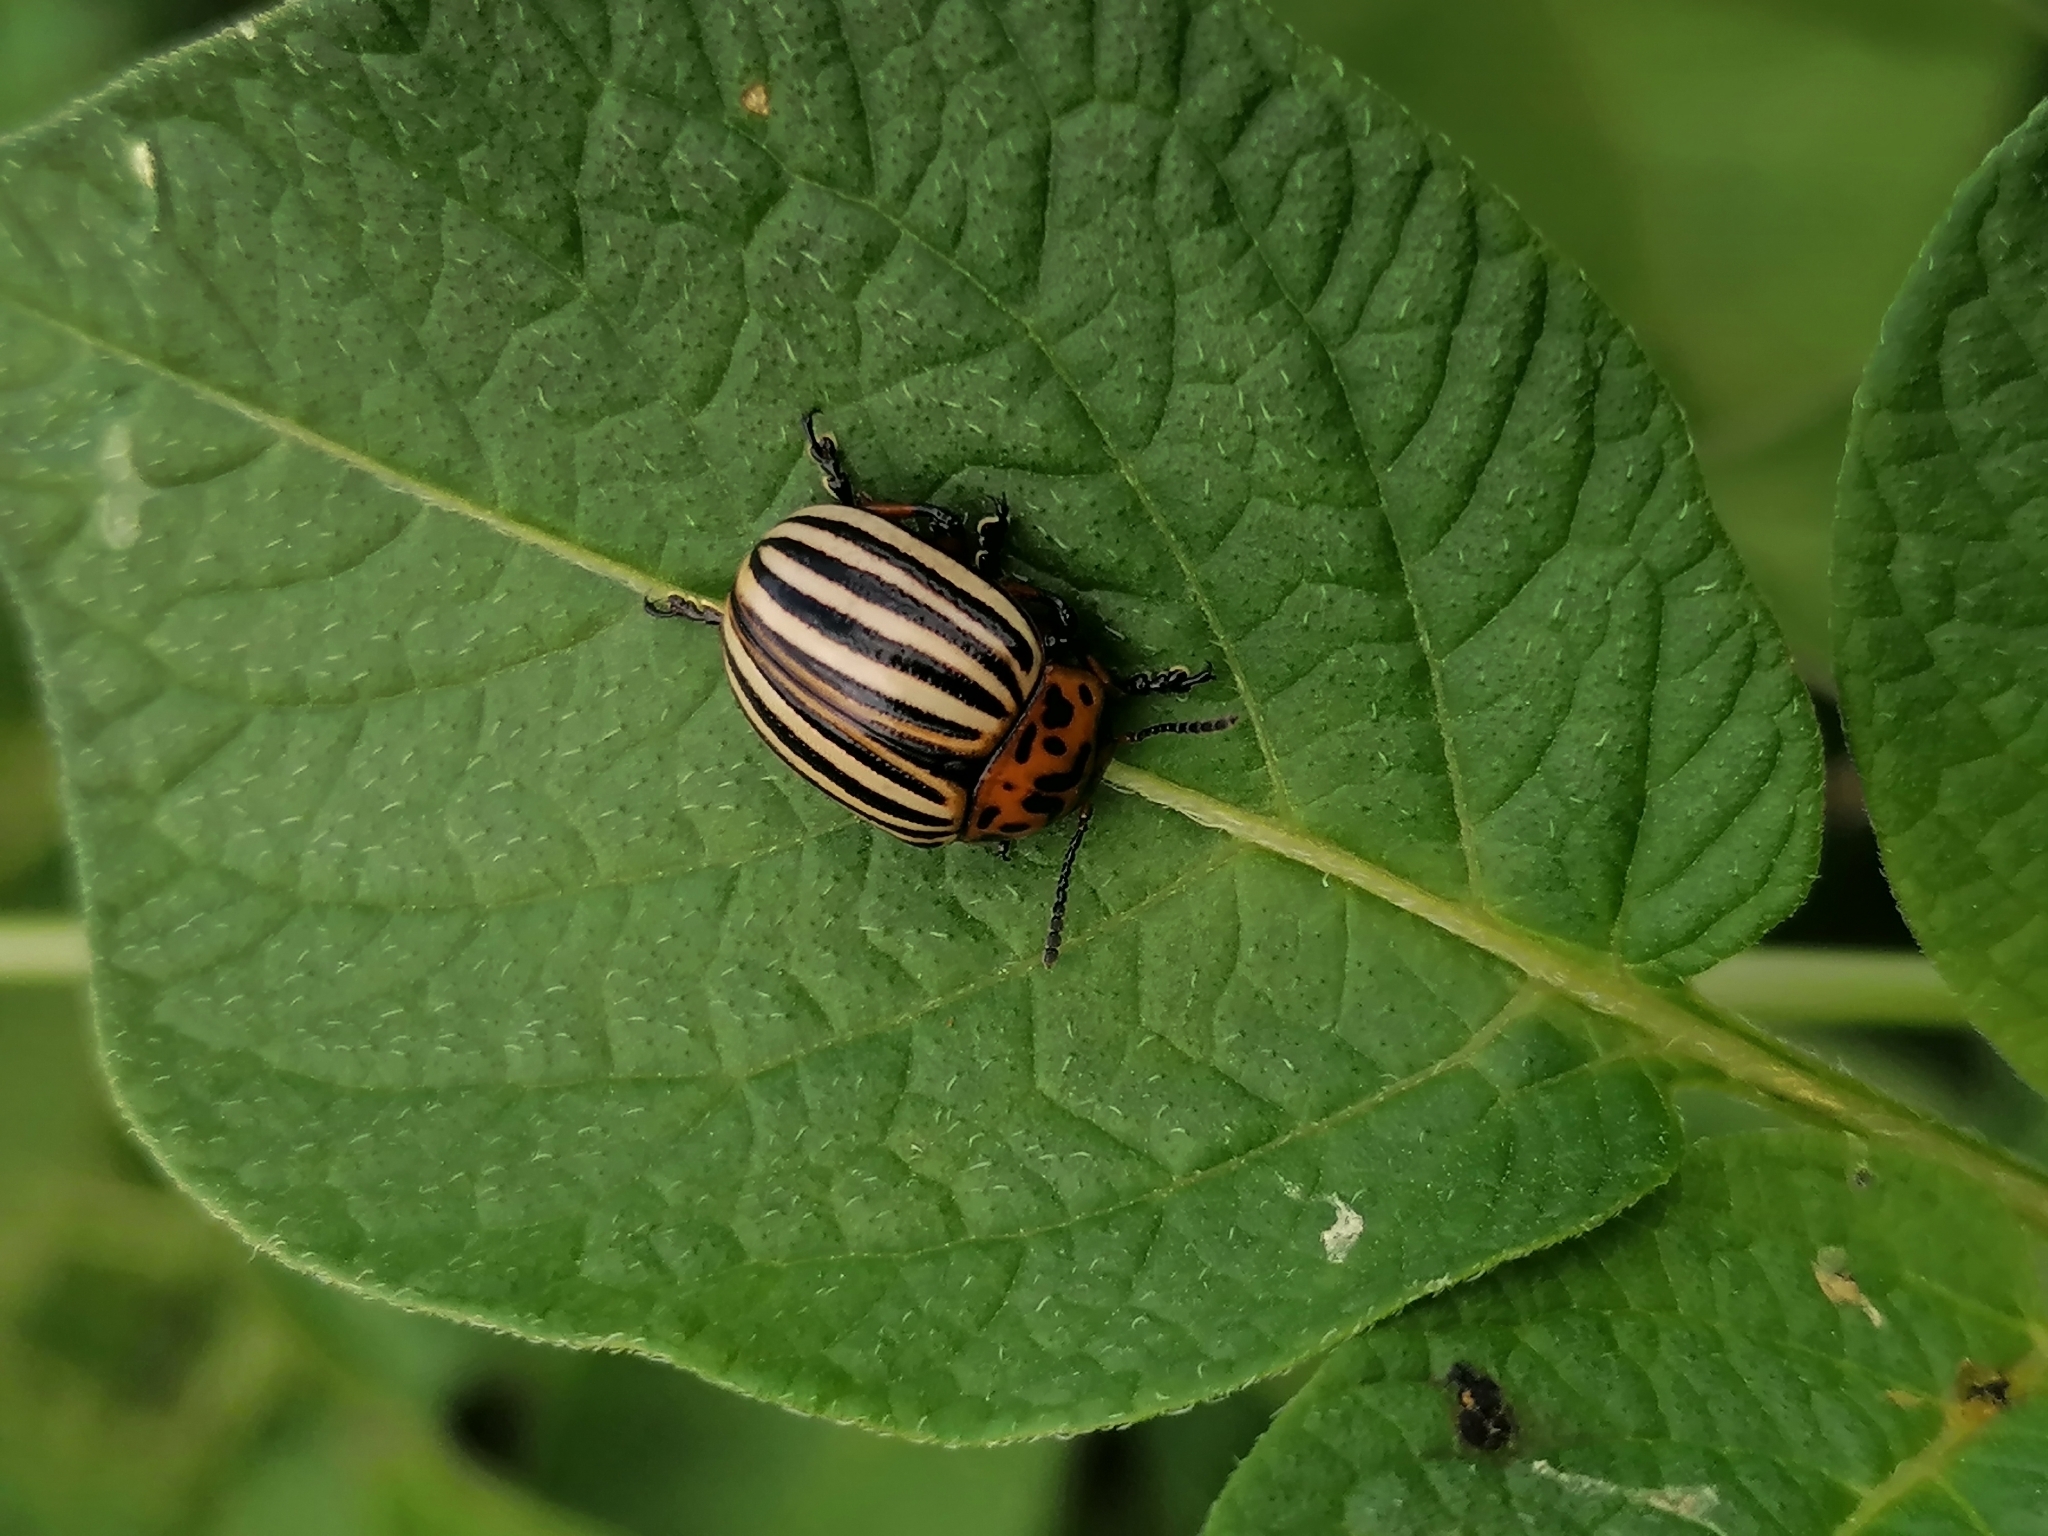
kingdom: Animalia
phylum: Arthropoda
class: Insecta
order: Coleoptera
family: Chrysomelidae
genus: Leptinotarsa
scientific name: Leptinotarsa decemlineata
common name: Colorado potato beetle
